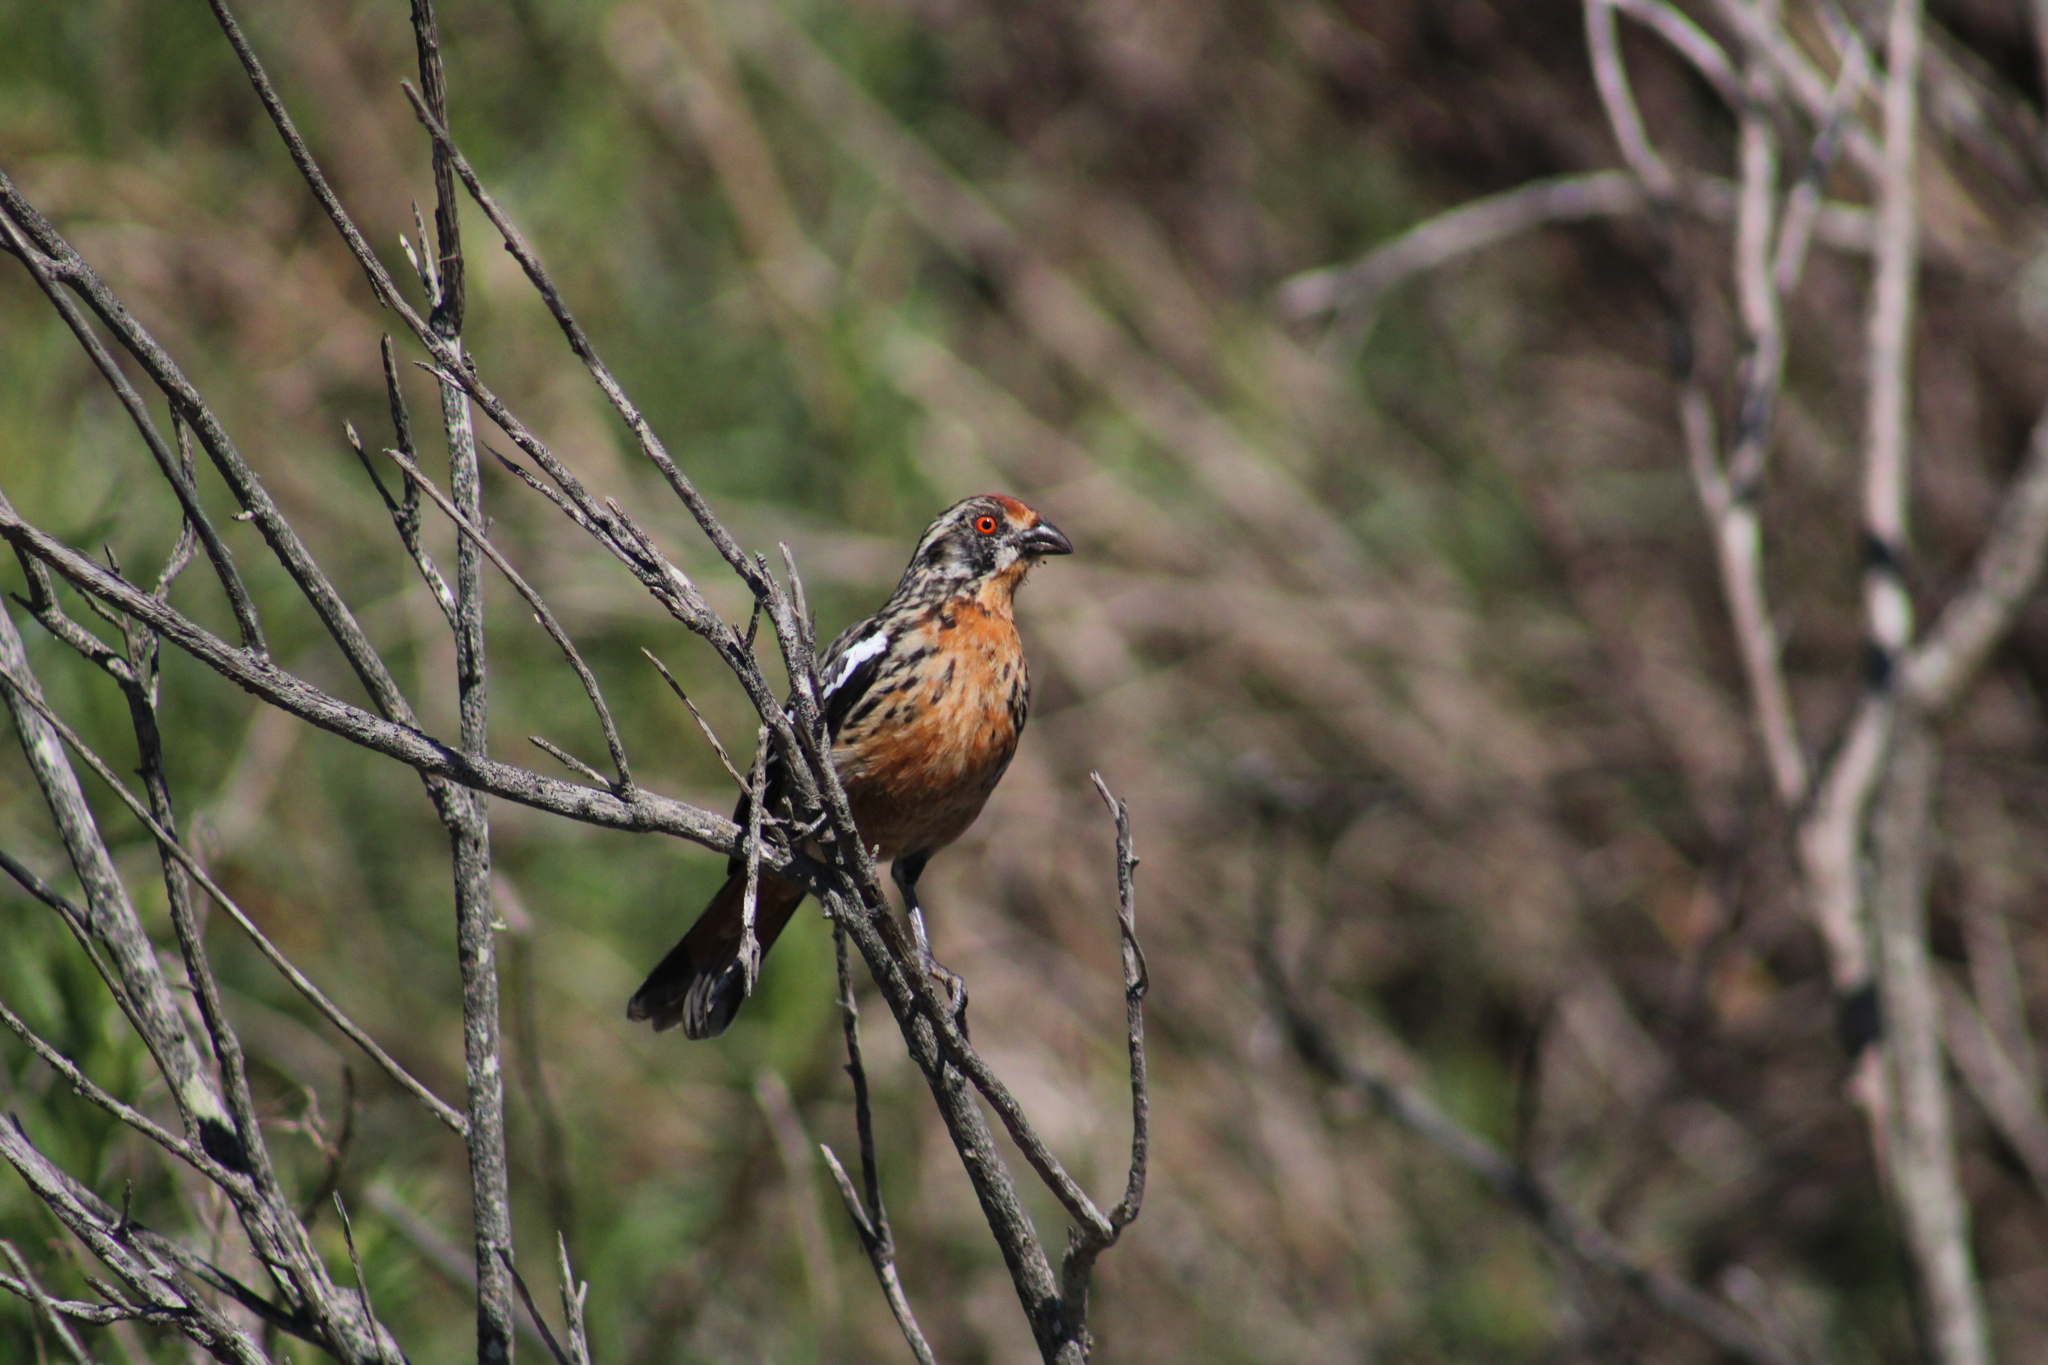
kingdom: Animalia
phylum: Chordata
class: Aves
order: Passeriformes
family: Cotingidae
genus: Phytotoma
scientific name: Phytotoma rara
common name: Rufous-tailed plantcutter
